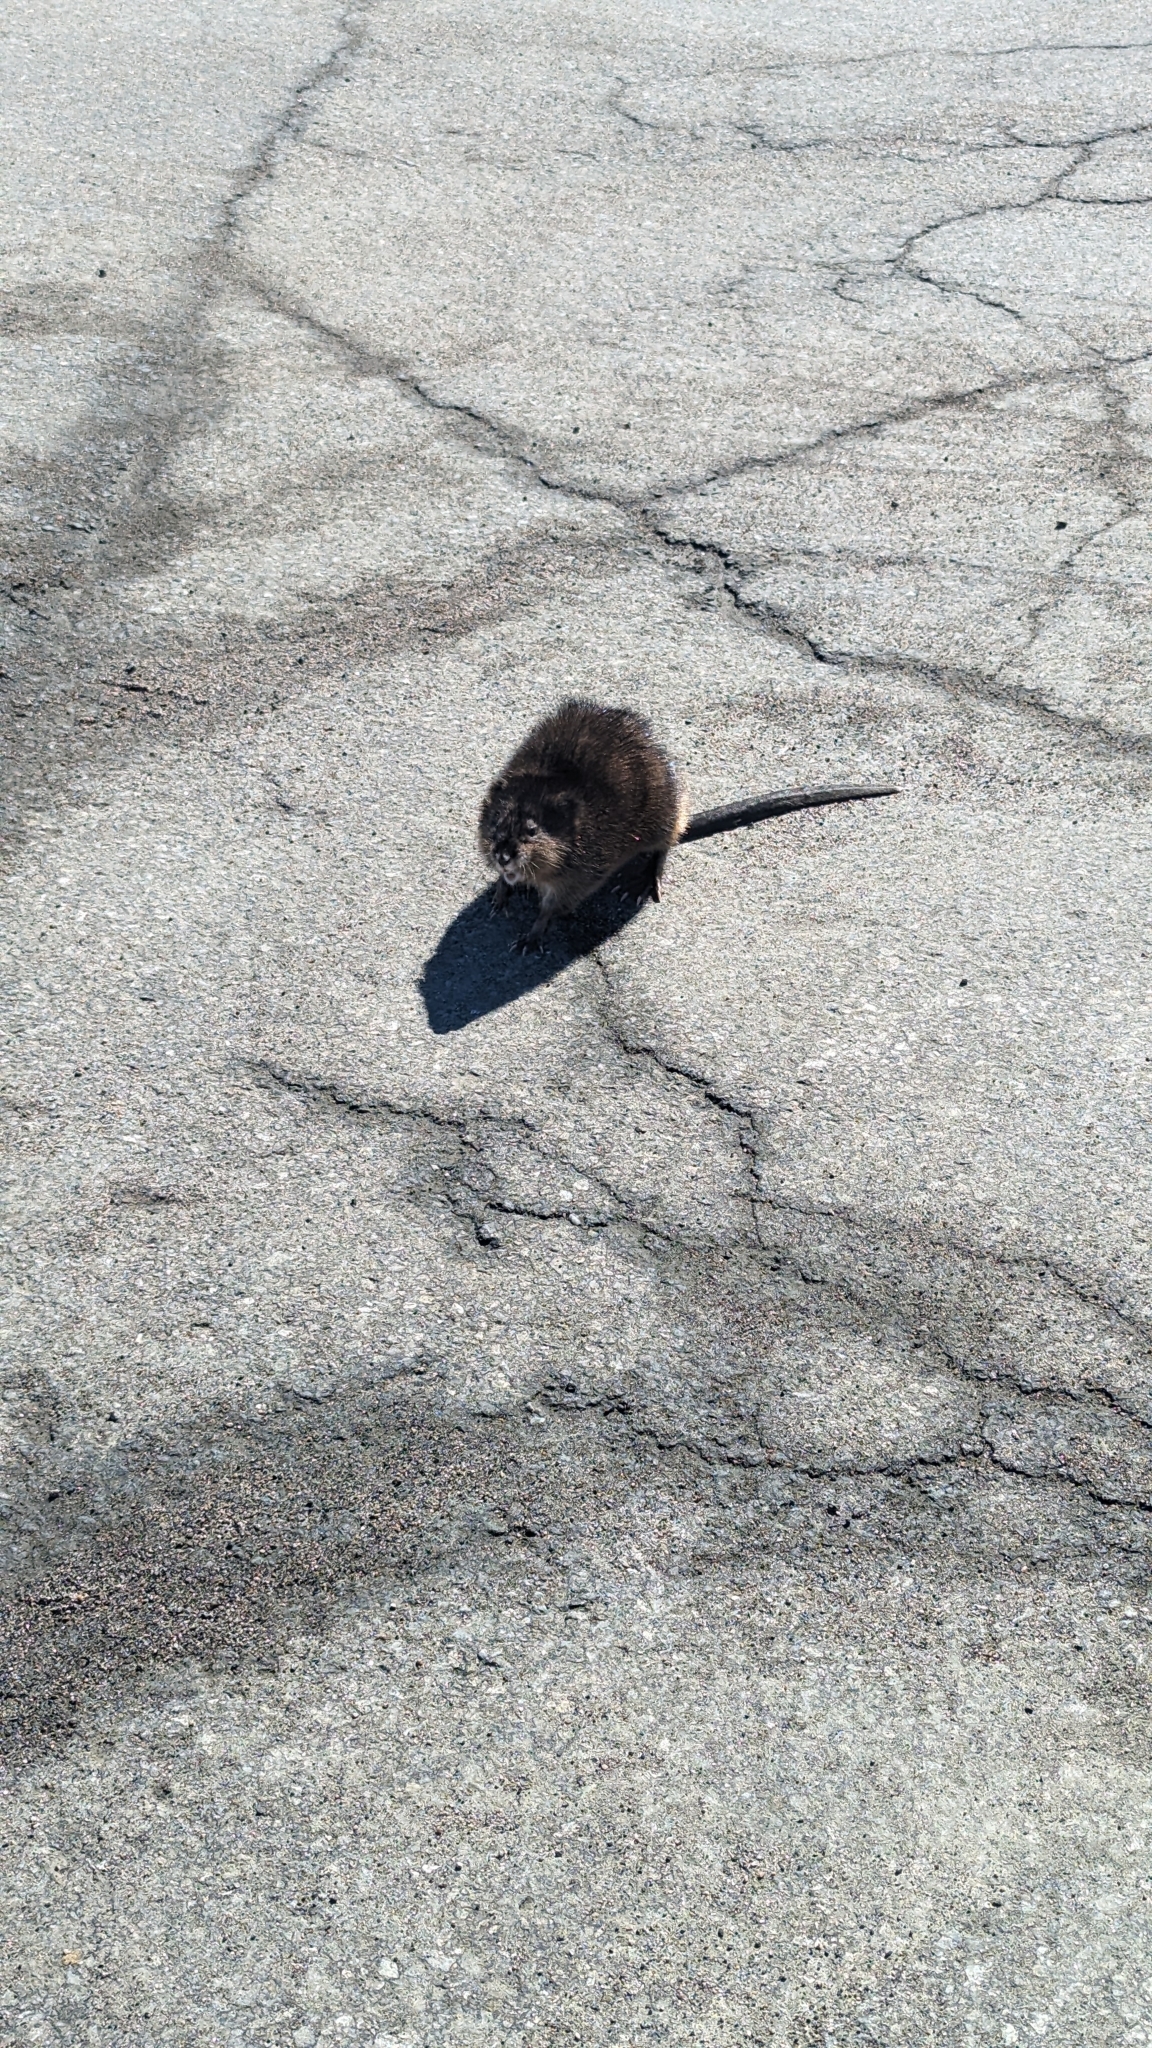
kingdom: Animalia
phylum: Chordata
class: Mammalia
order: Rodentia
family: Cricetidae
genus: Ondatra
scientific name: Ondatra zibethicus
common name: Muskrat
